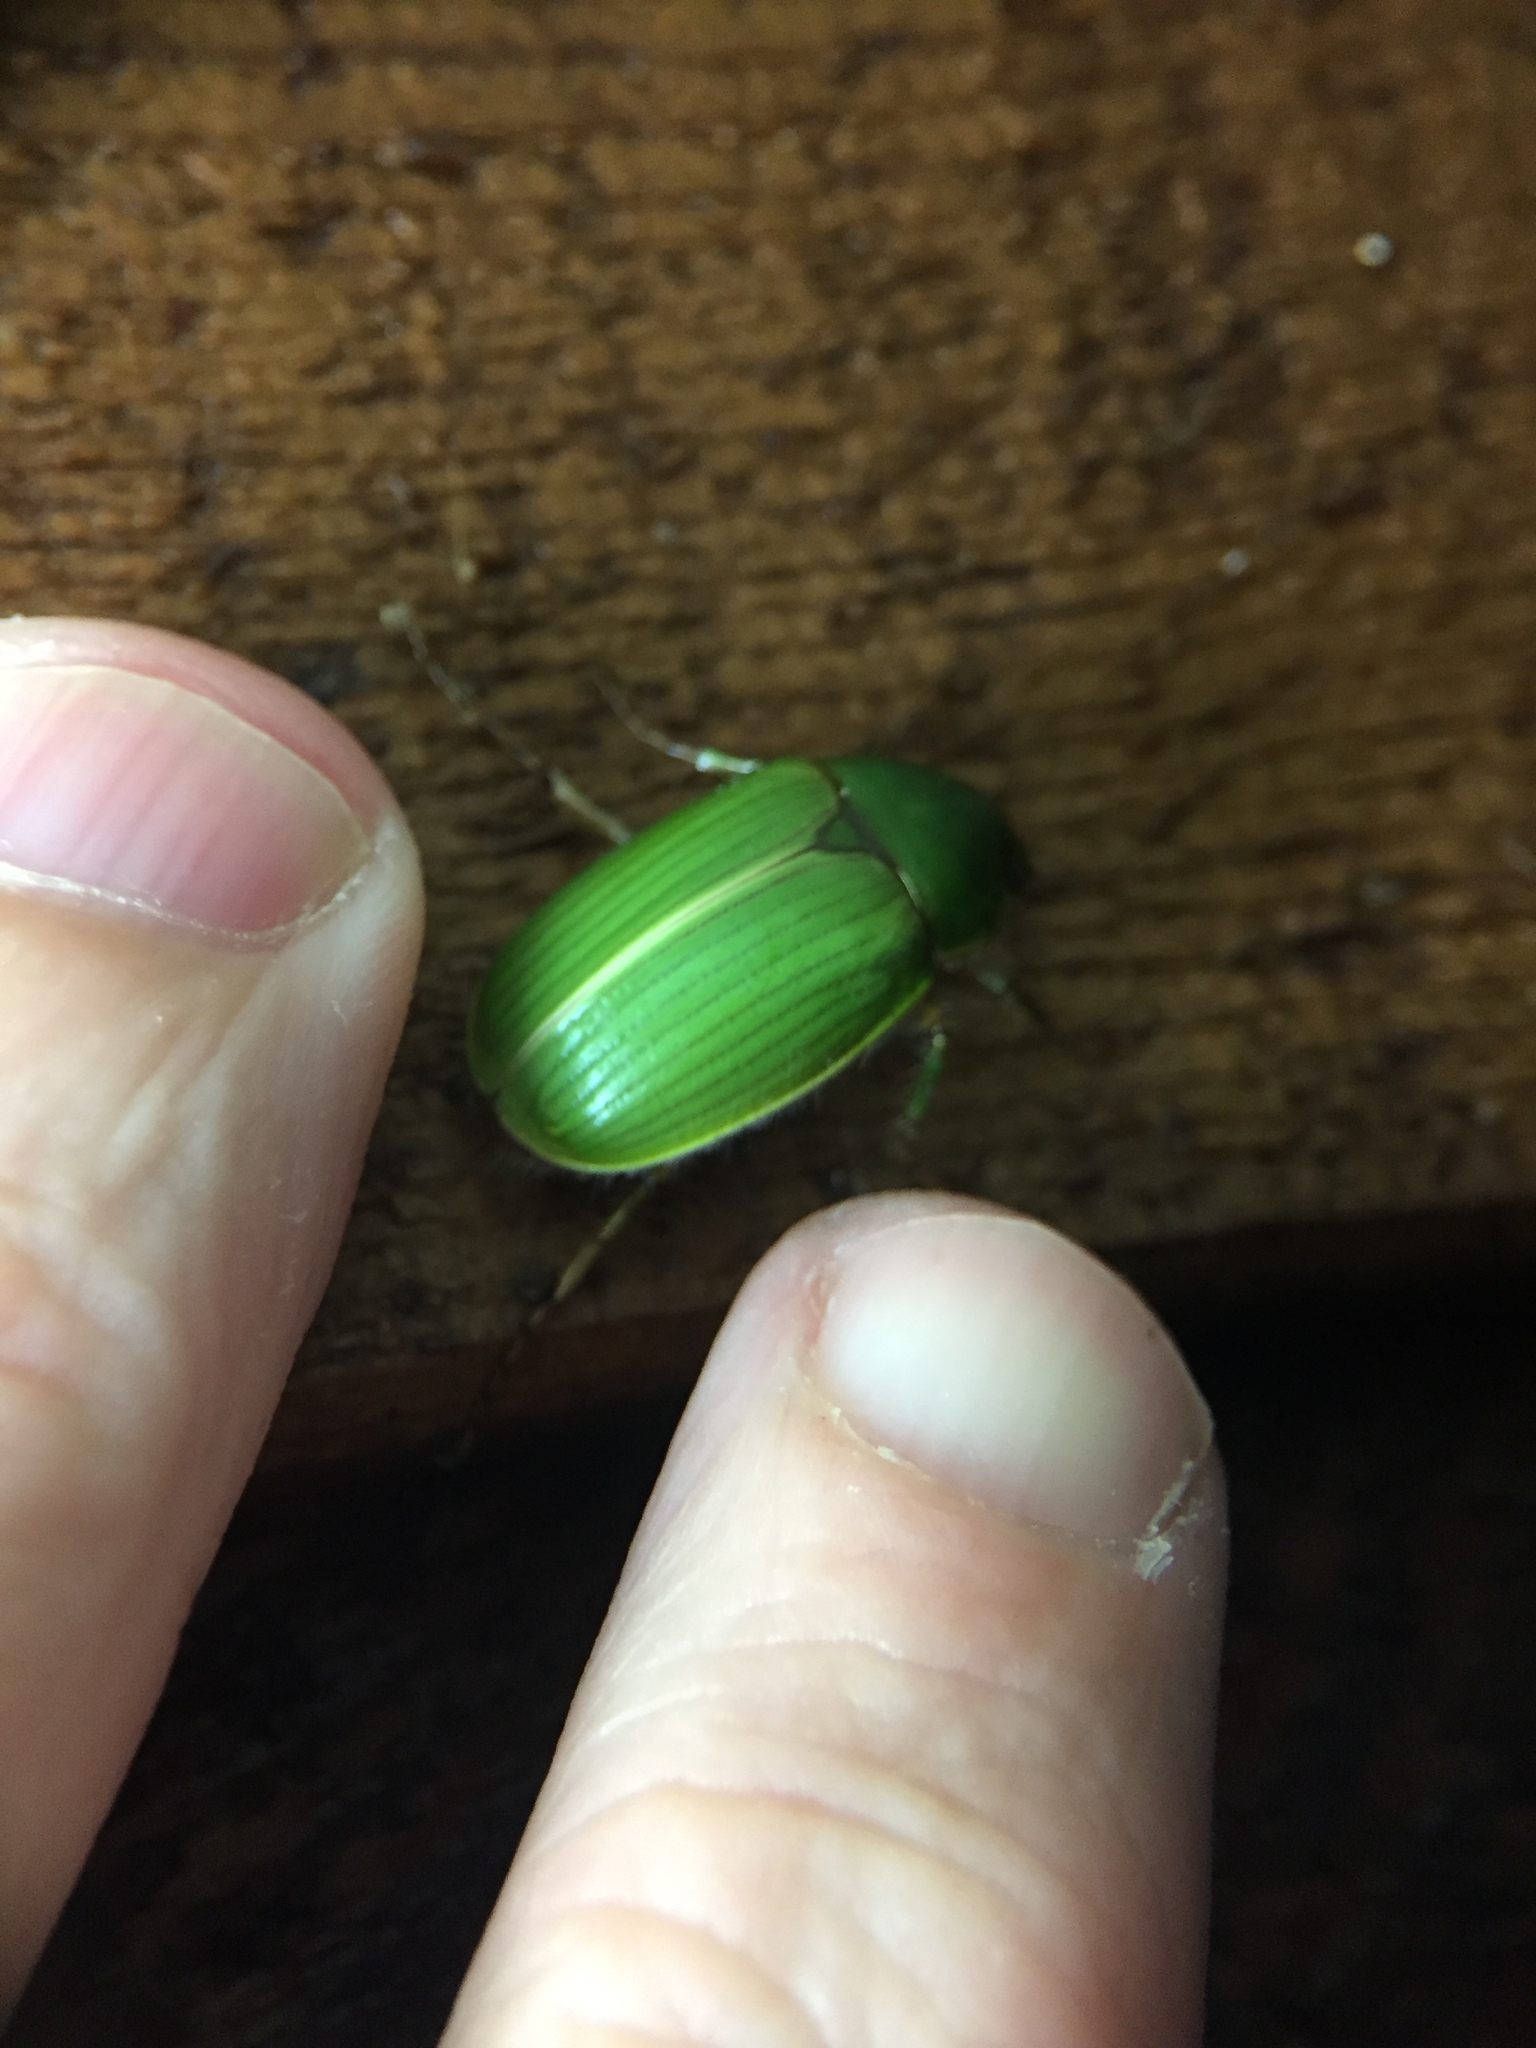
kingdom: Animalia
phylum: Arthropoda
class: Insecta
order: Coleoptera
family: Scarabaeidae
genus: Stethaspis
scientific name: Stethaspis longicornis
